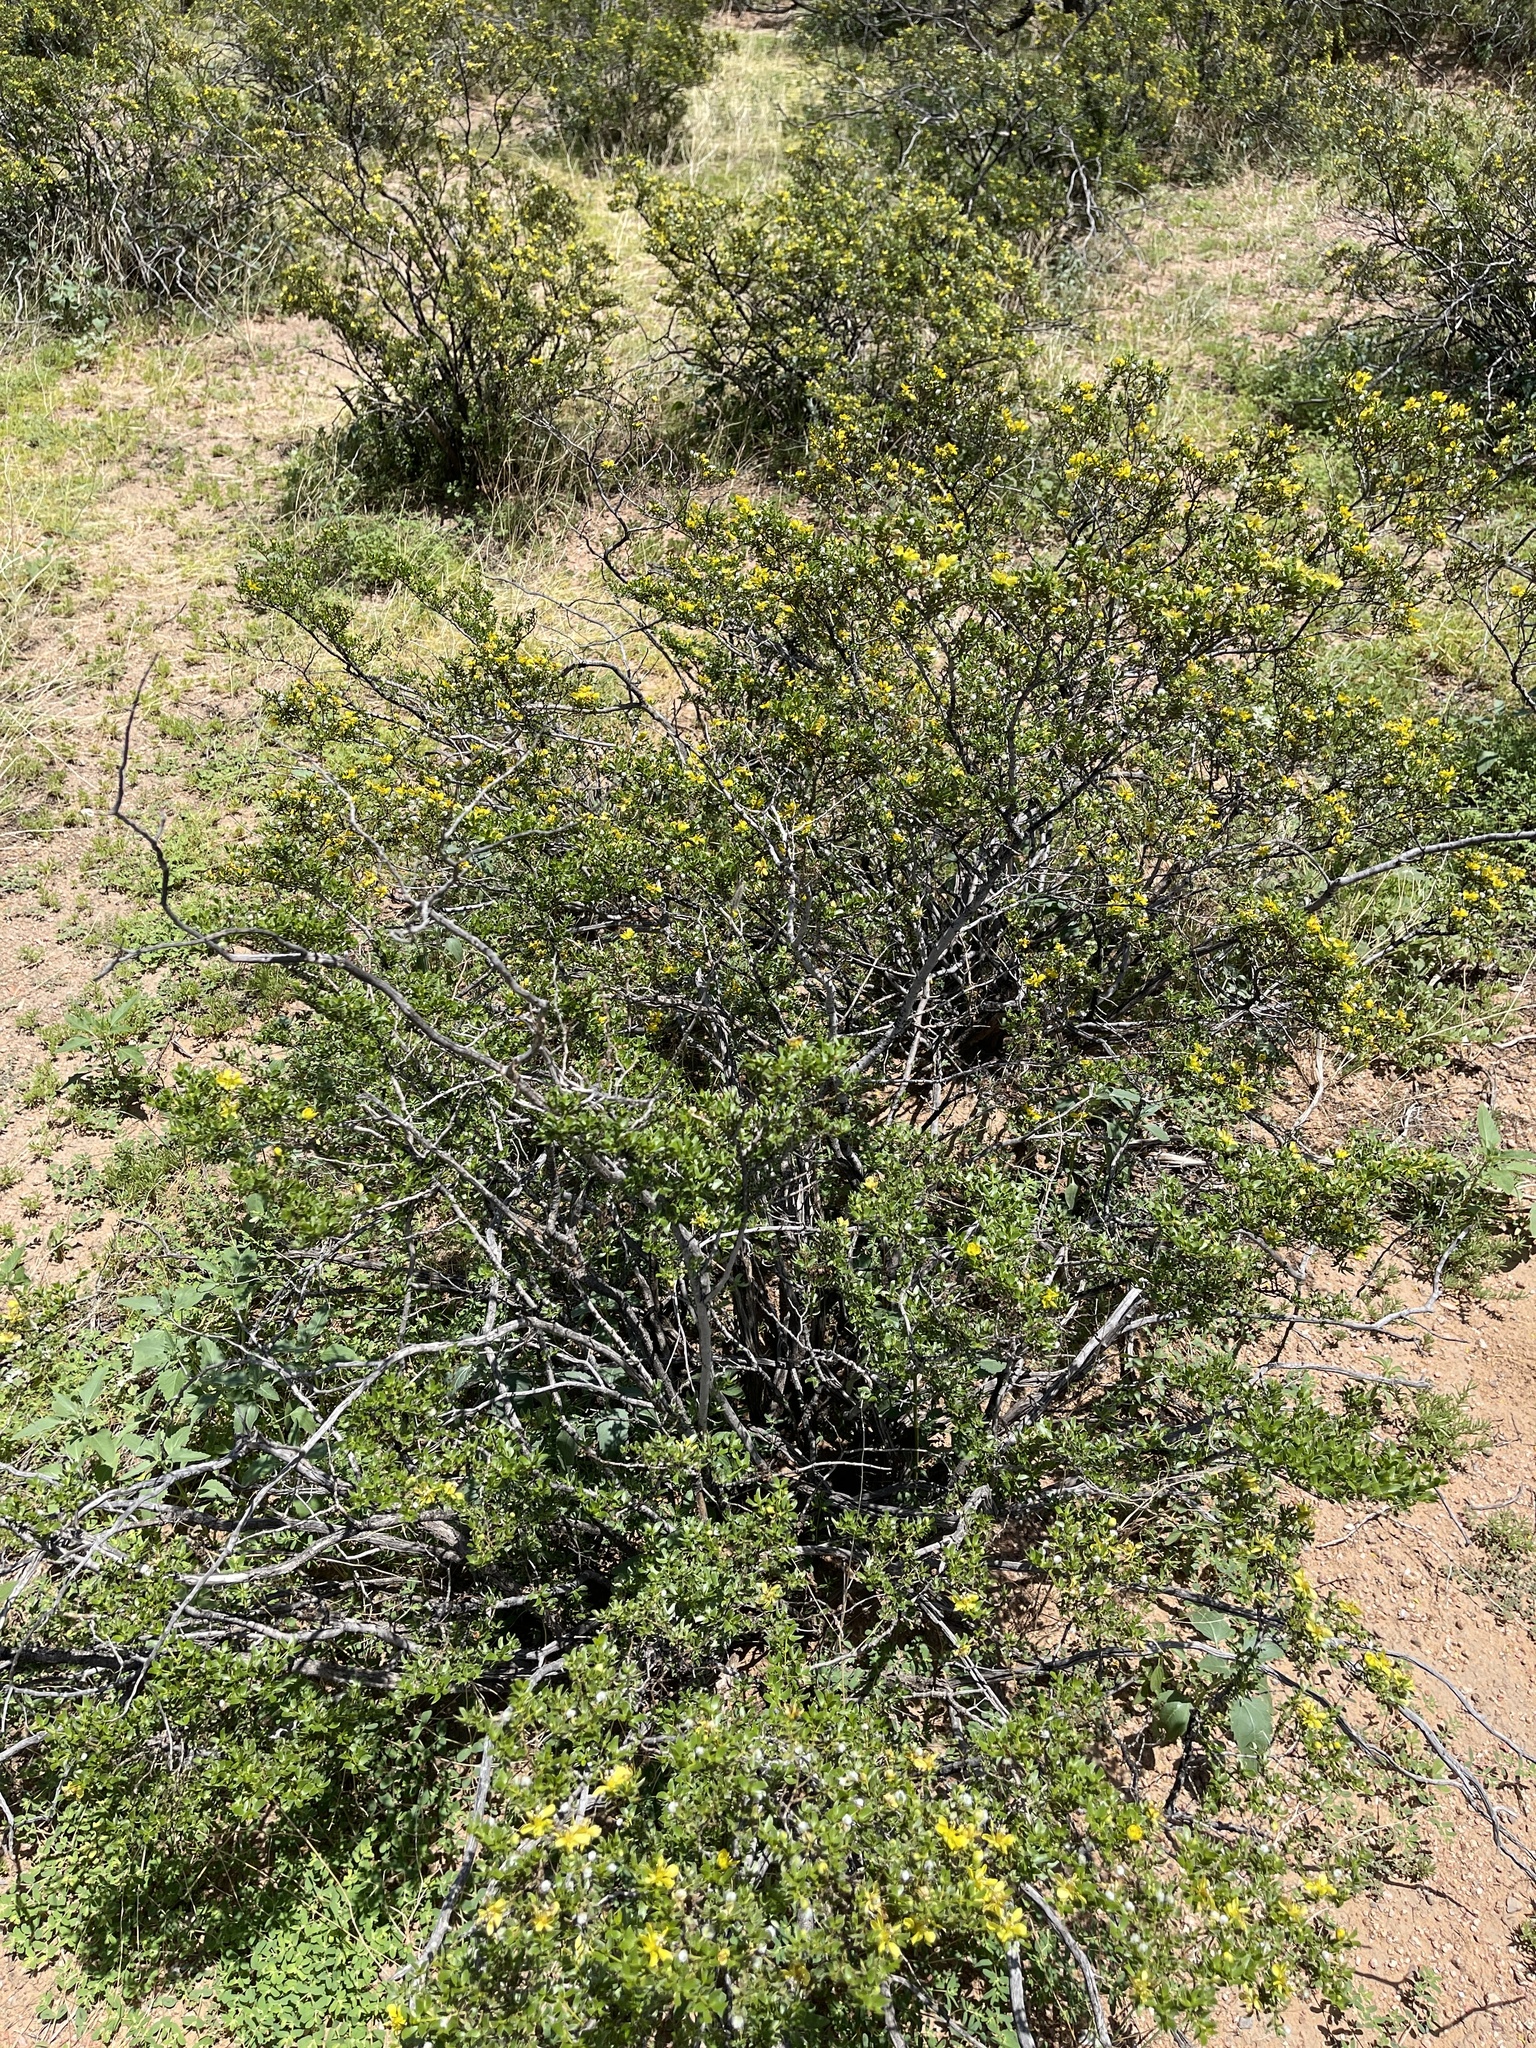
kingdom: Plantae
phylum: Tracheophyta
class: Magnoliopsida
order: Zygophyllales
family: Zygophyllaceae
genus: Larrea
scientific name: Larrea tridentata
